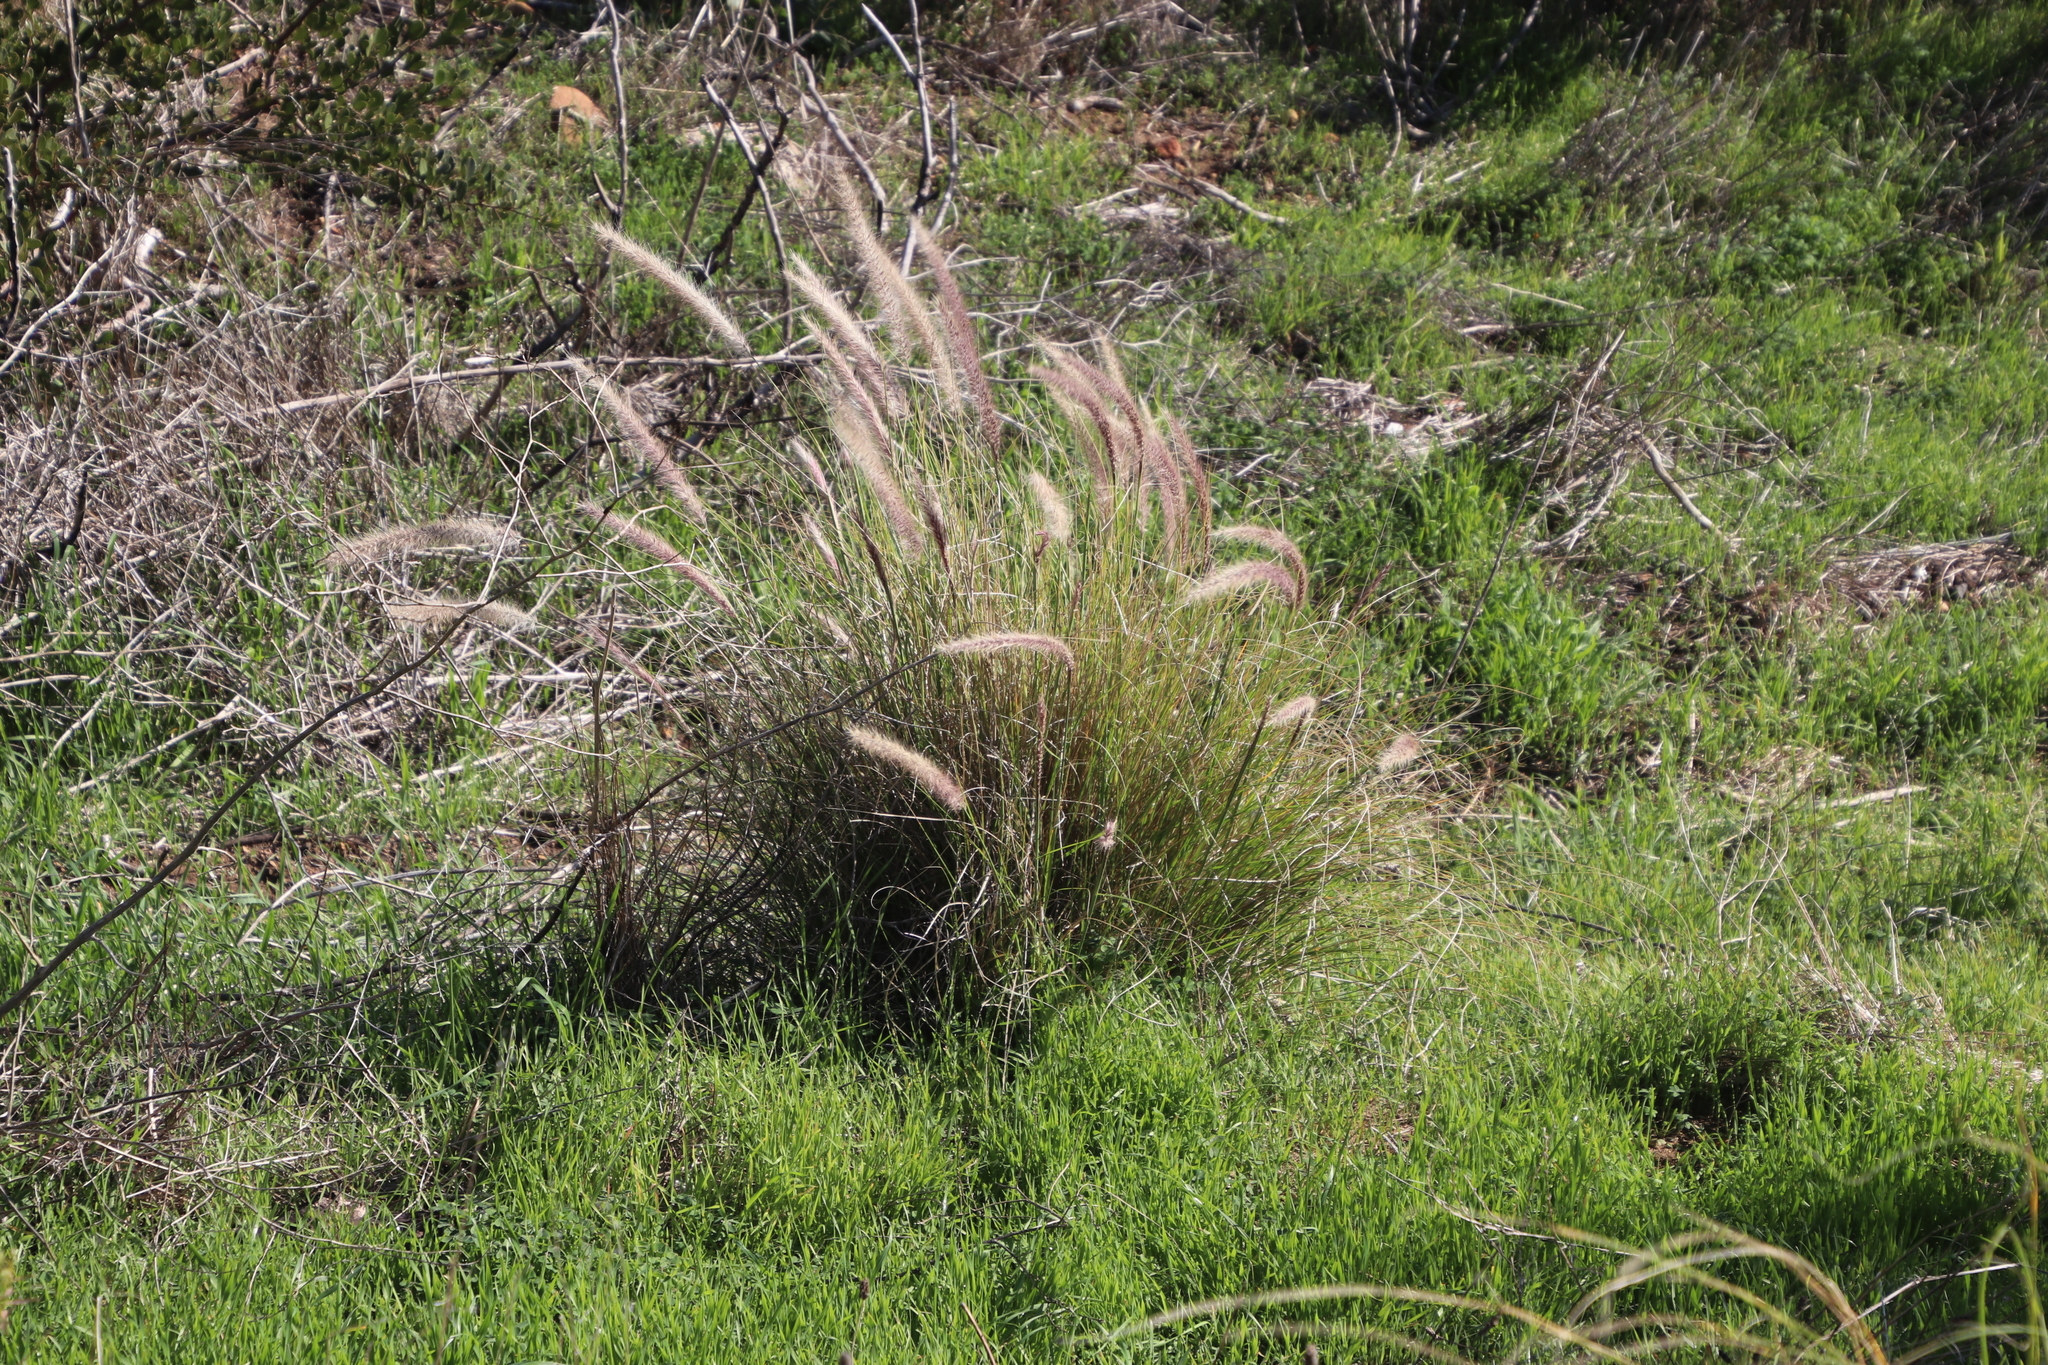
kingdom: Plantae
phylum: Tracheophyta
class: Liliopsida
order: Poales
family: Poaceae
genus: Cenchrus
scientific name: Cenchrus setaceus
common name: Crimson fountaingrass
